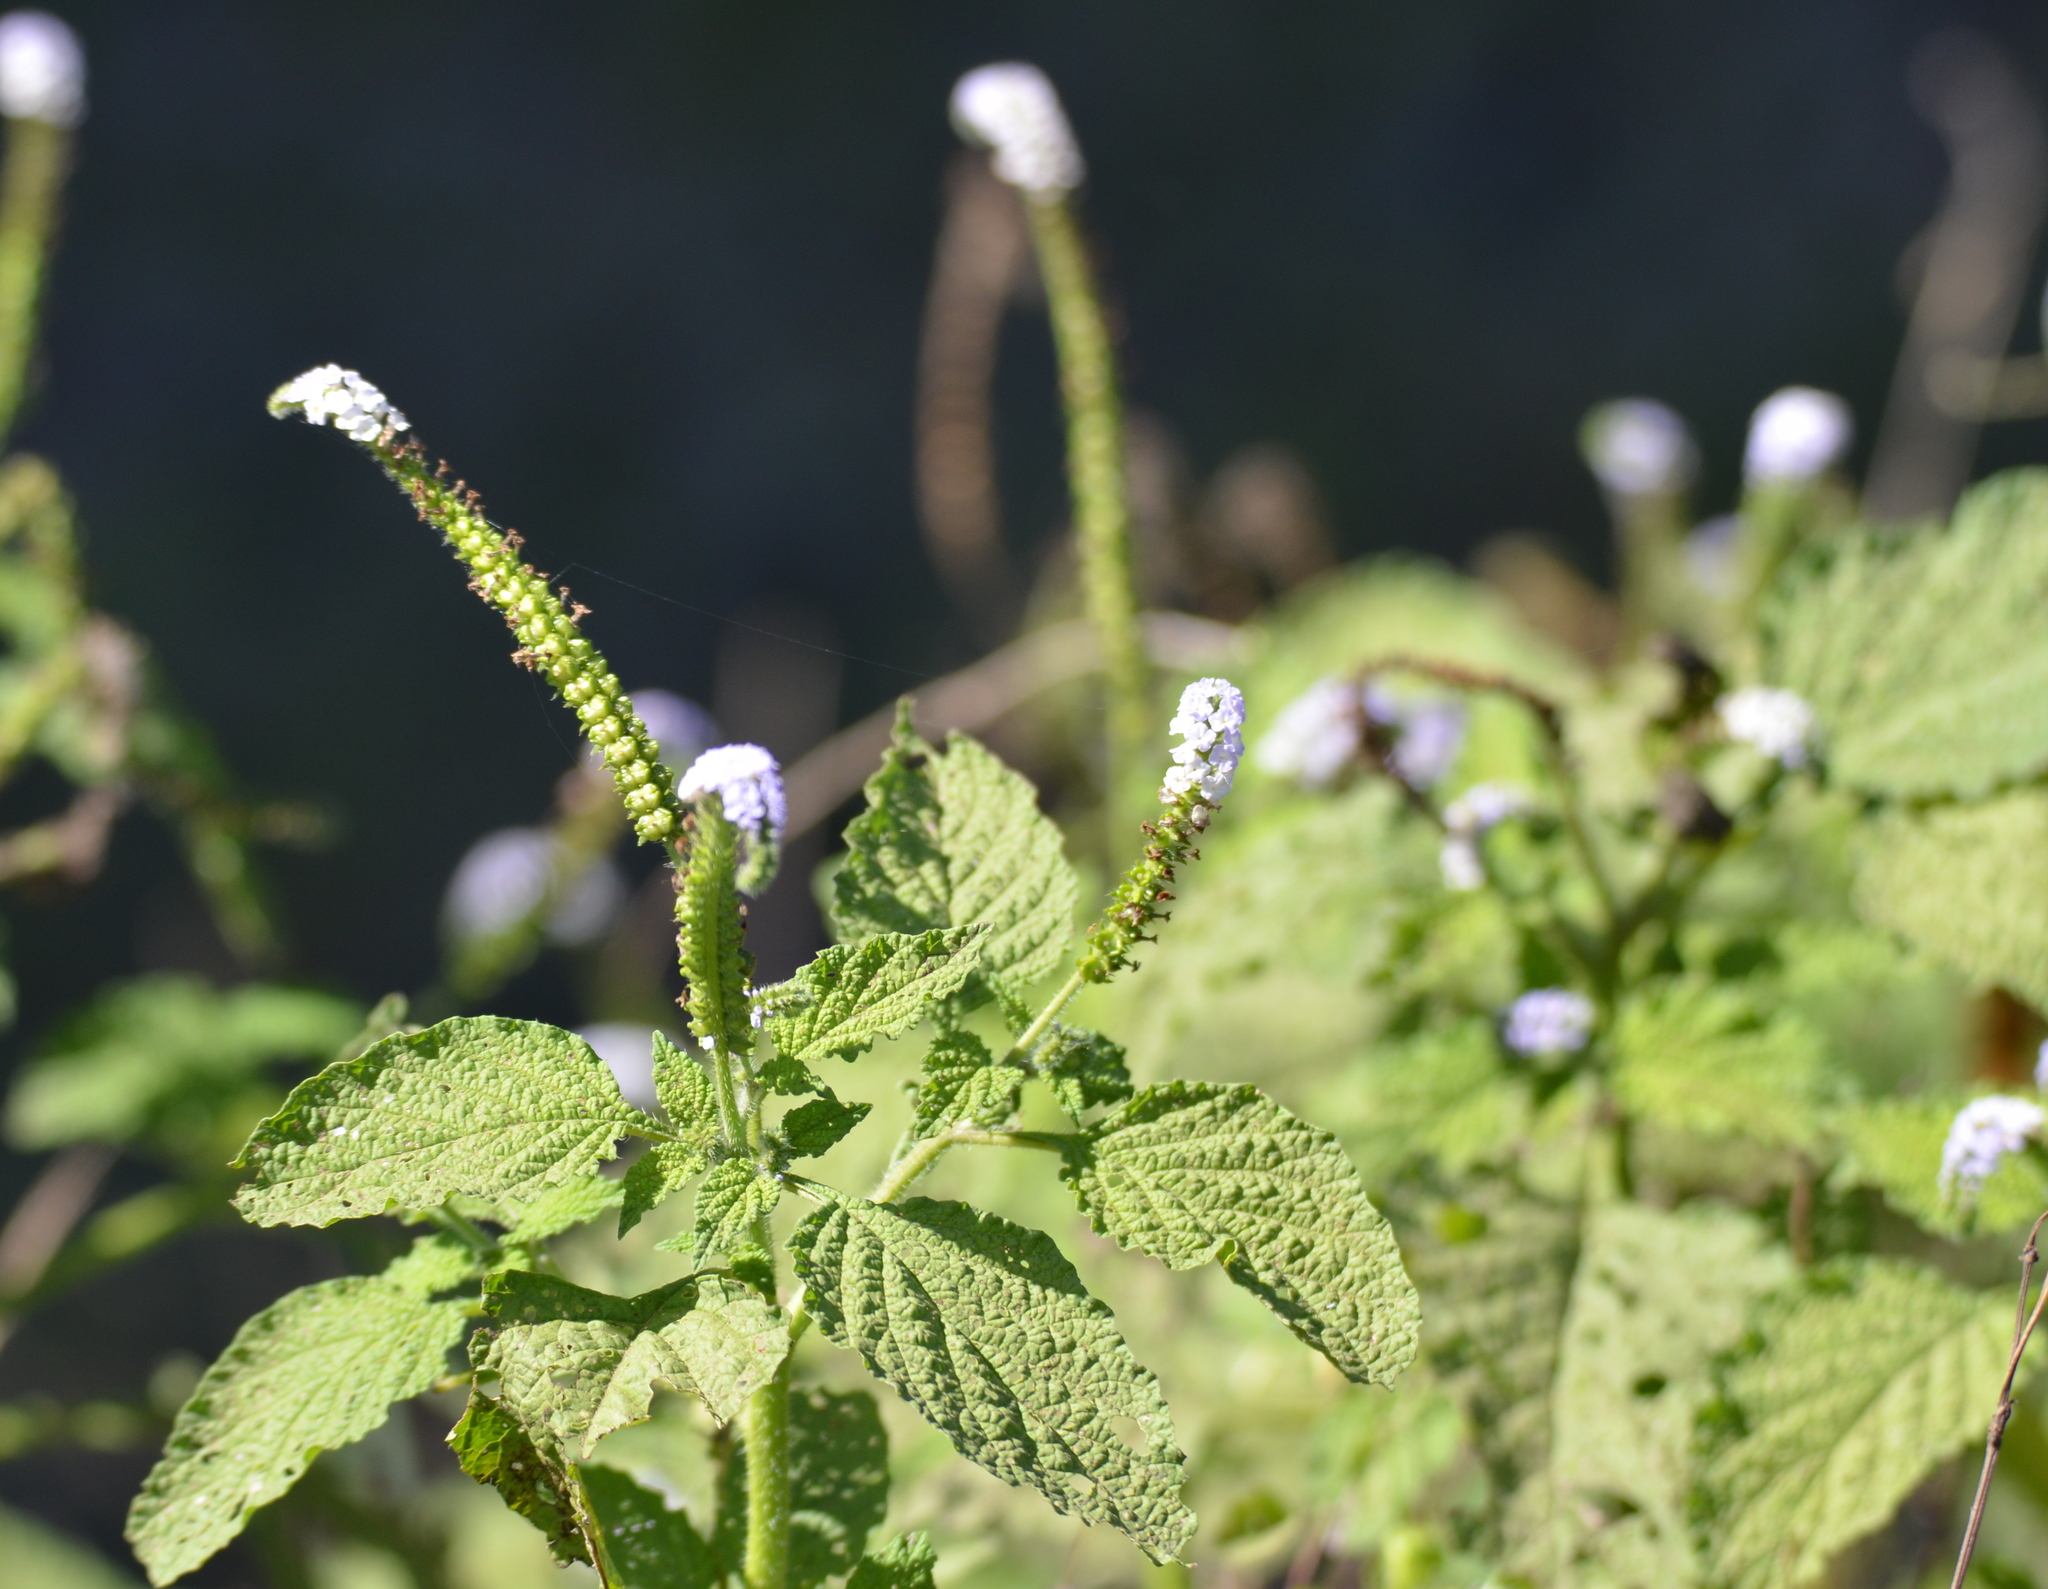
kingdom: Plantae
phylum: Tracheophyta
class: Magnoliopsida
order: Boraginales
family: Heliotropiaceae
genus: Heliotropium
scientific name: Heliotropium indicum
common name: Indian heliotrope
